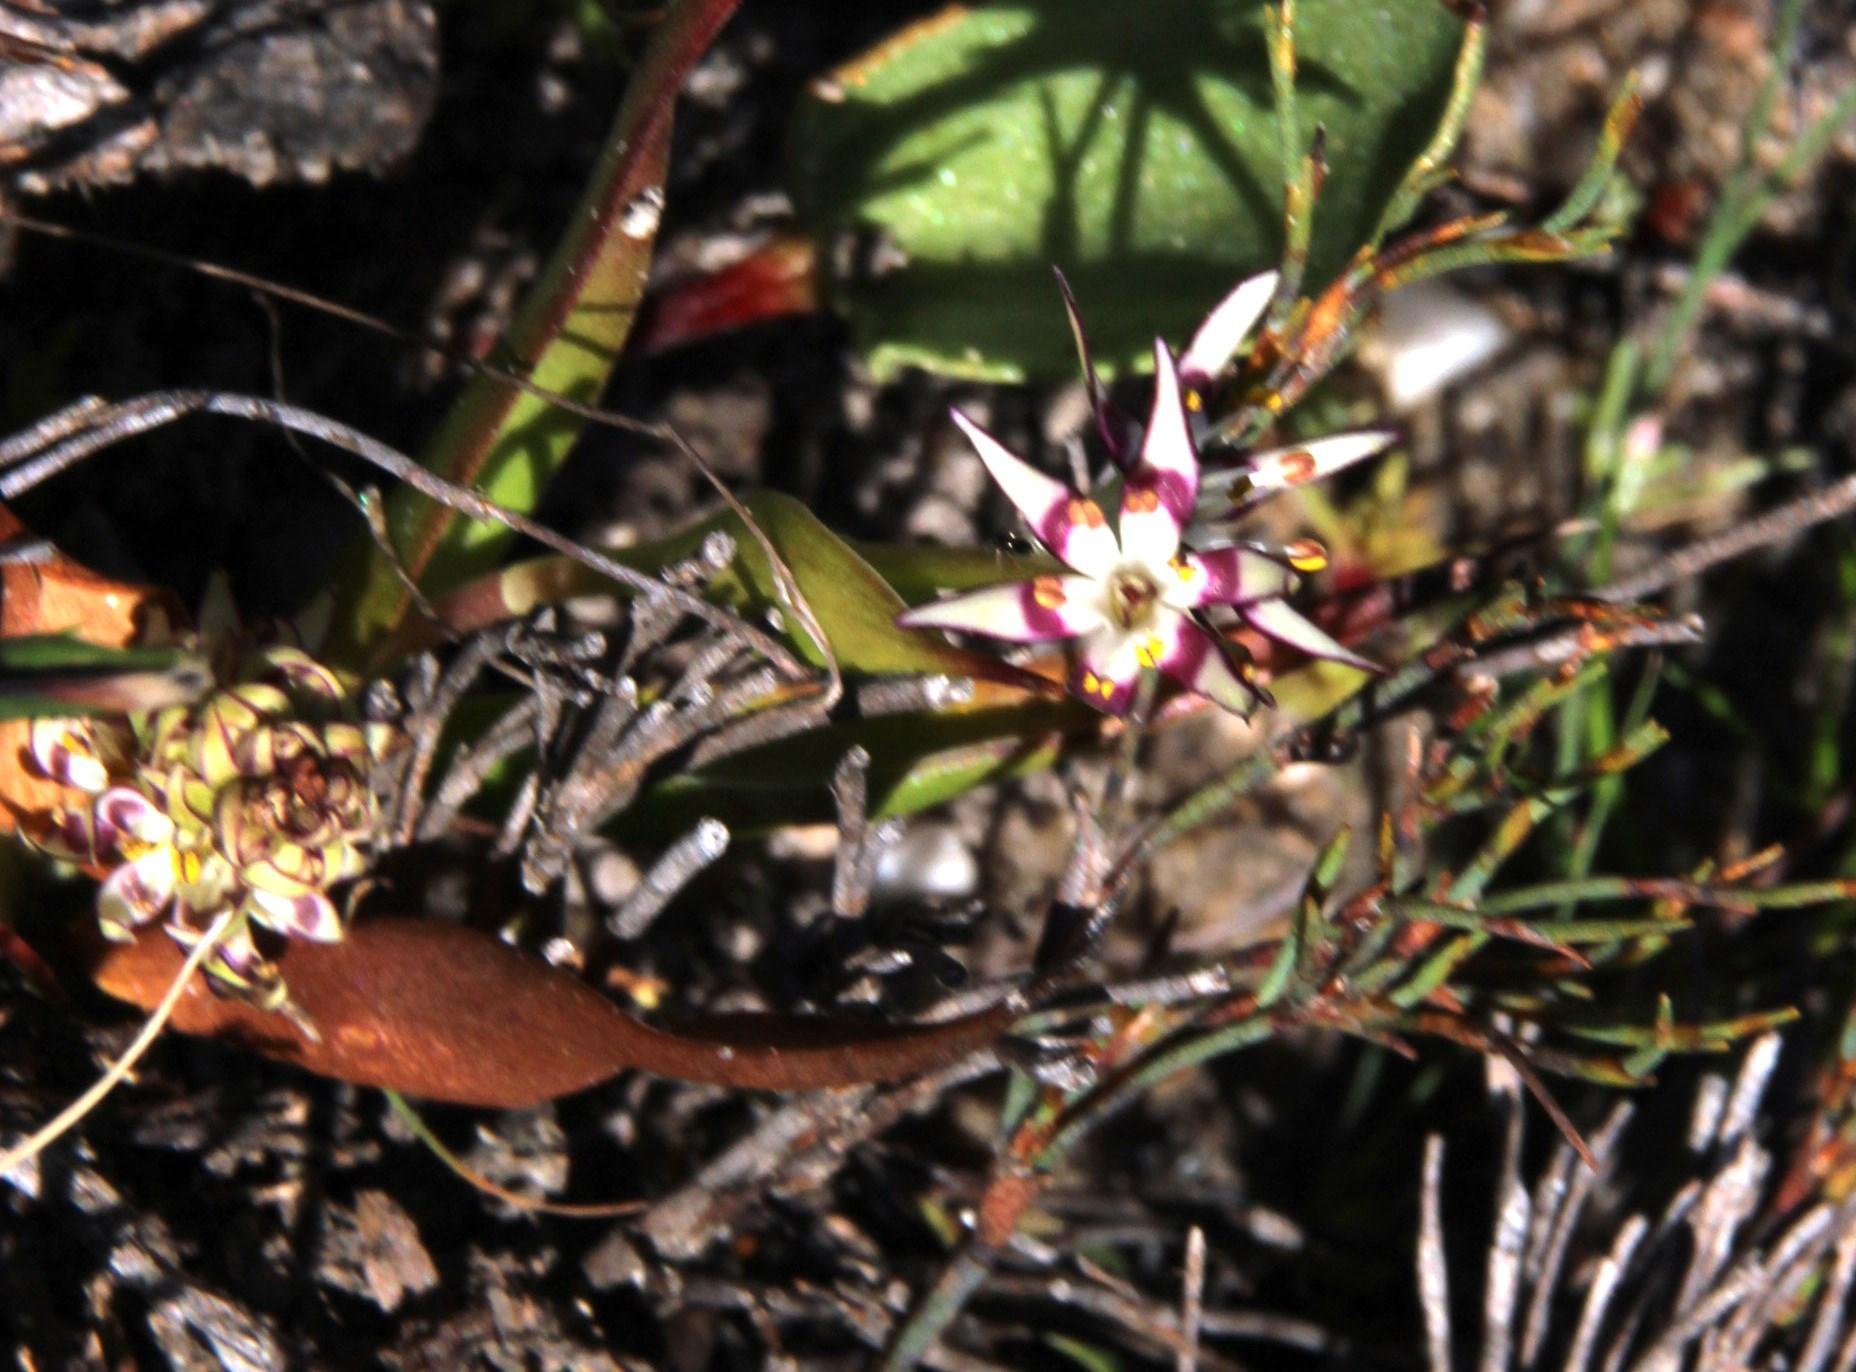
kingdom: Plantae
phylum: Tracheophyta
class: Liliopsida
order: Liliales
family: Colchicaceae
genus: Wurmbea
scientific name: Wurmbea inusta
